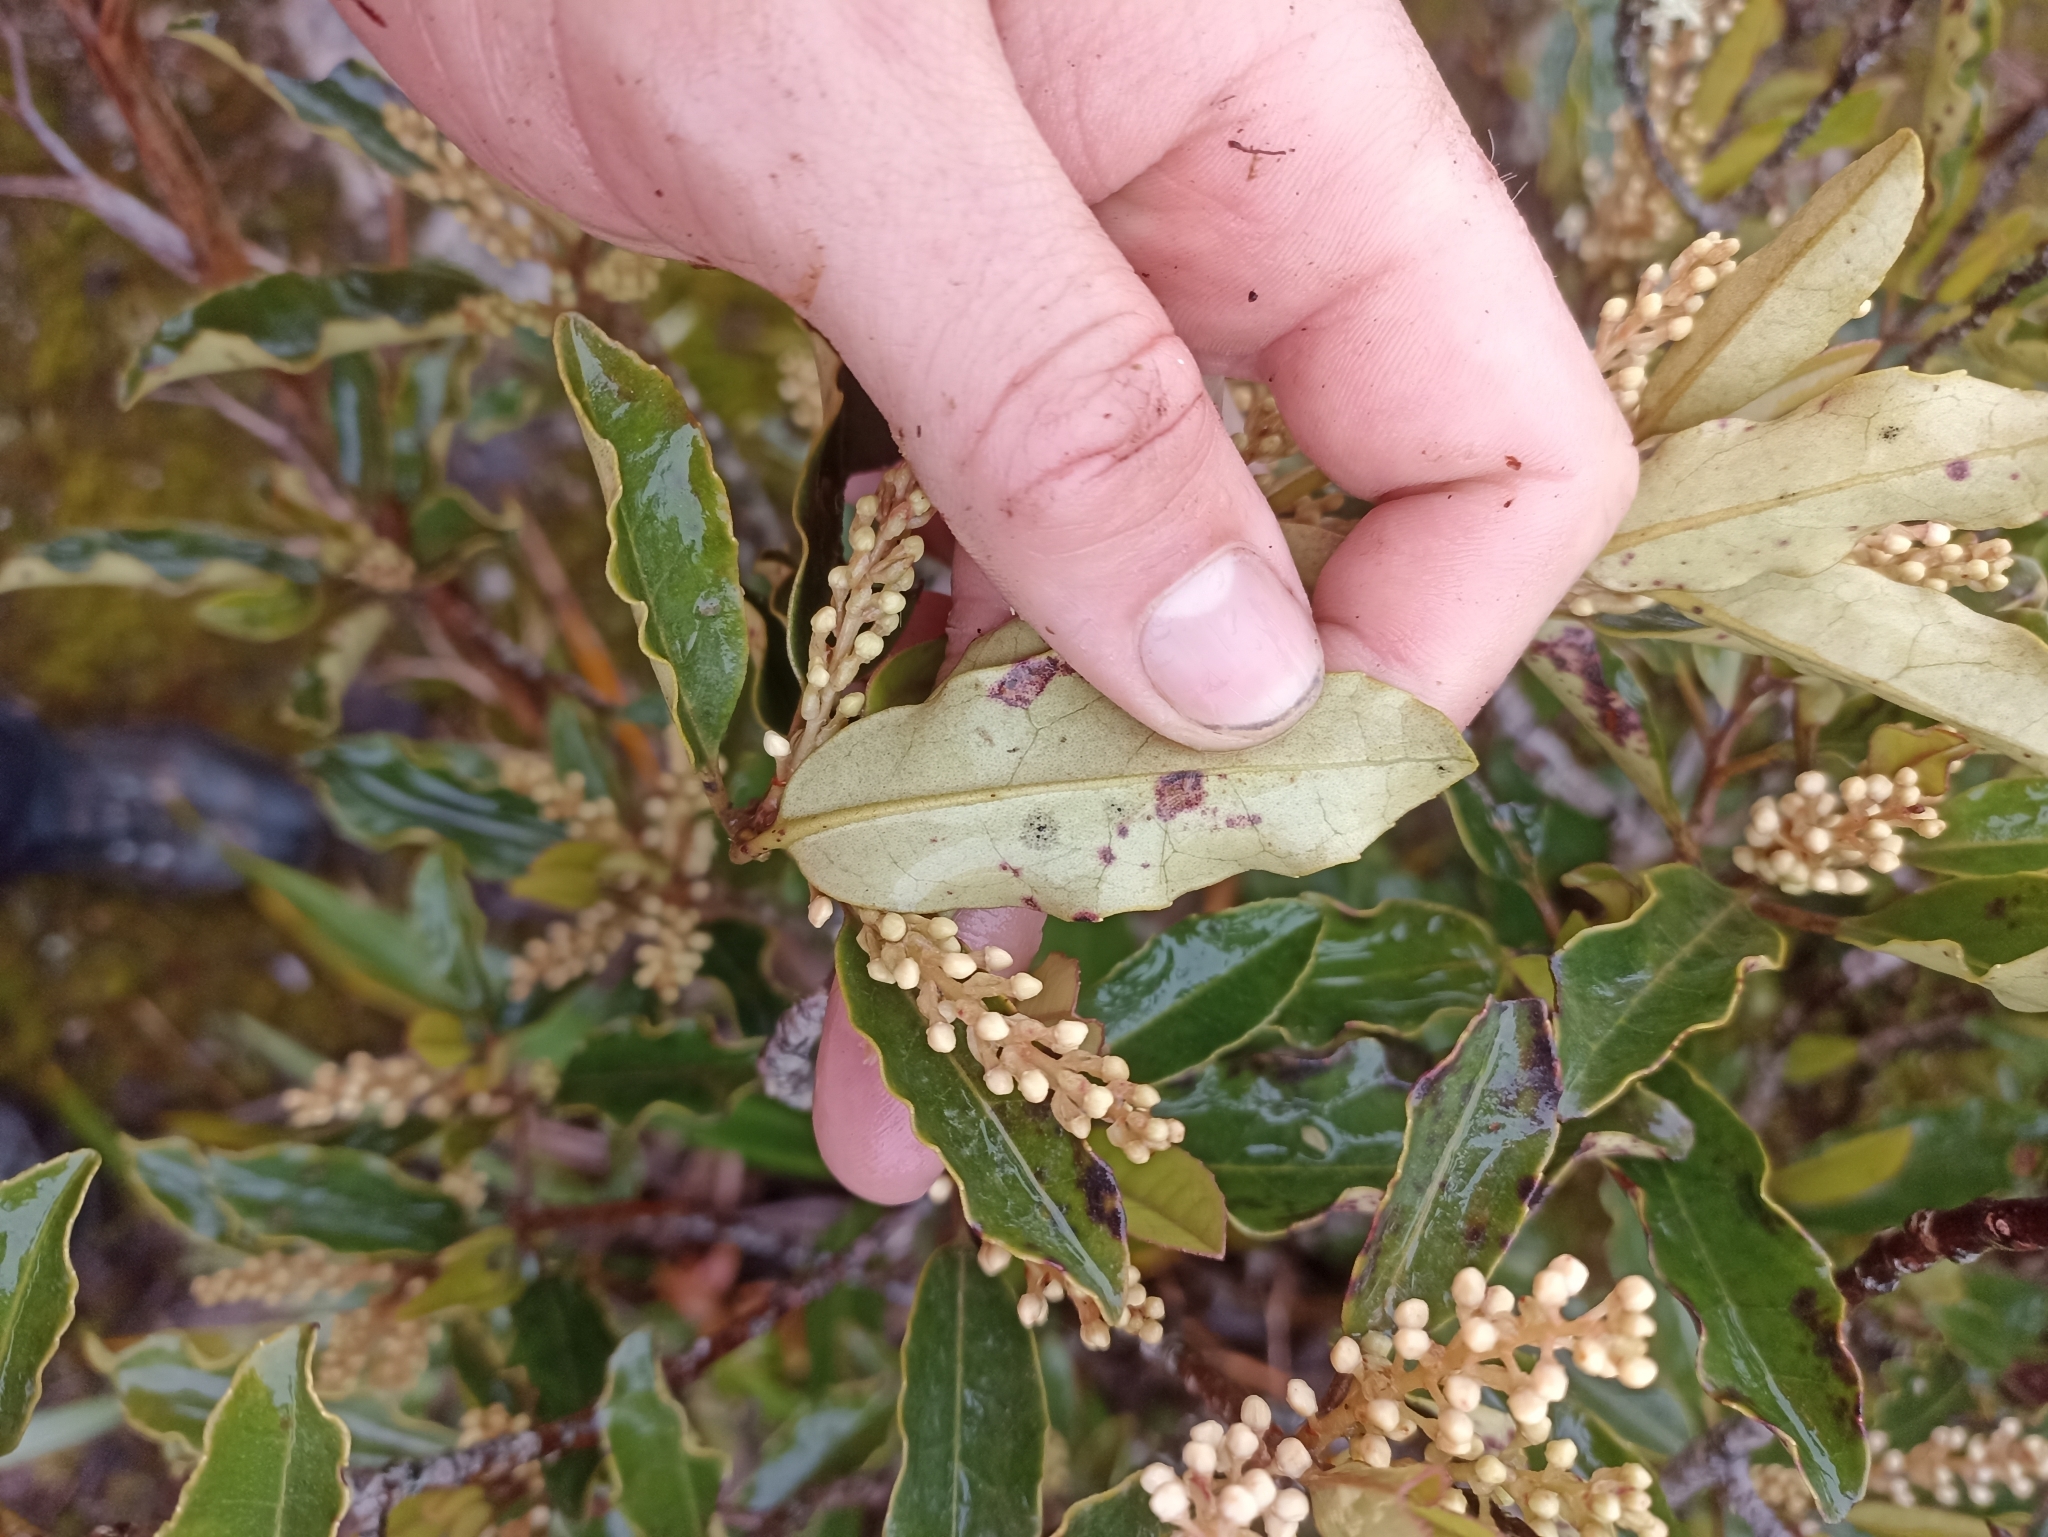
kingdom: Plantae
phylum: Tracheophyta
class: Magnoliopsida
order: Paracryphiales
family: Paracryphiaceae
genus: Quintinia
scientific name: Quintinia serrata
